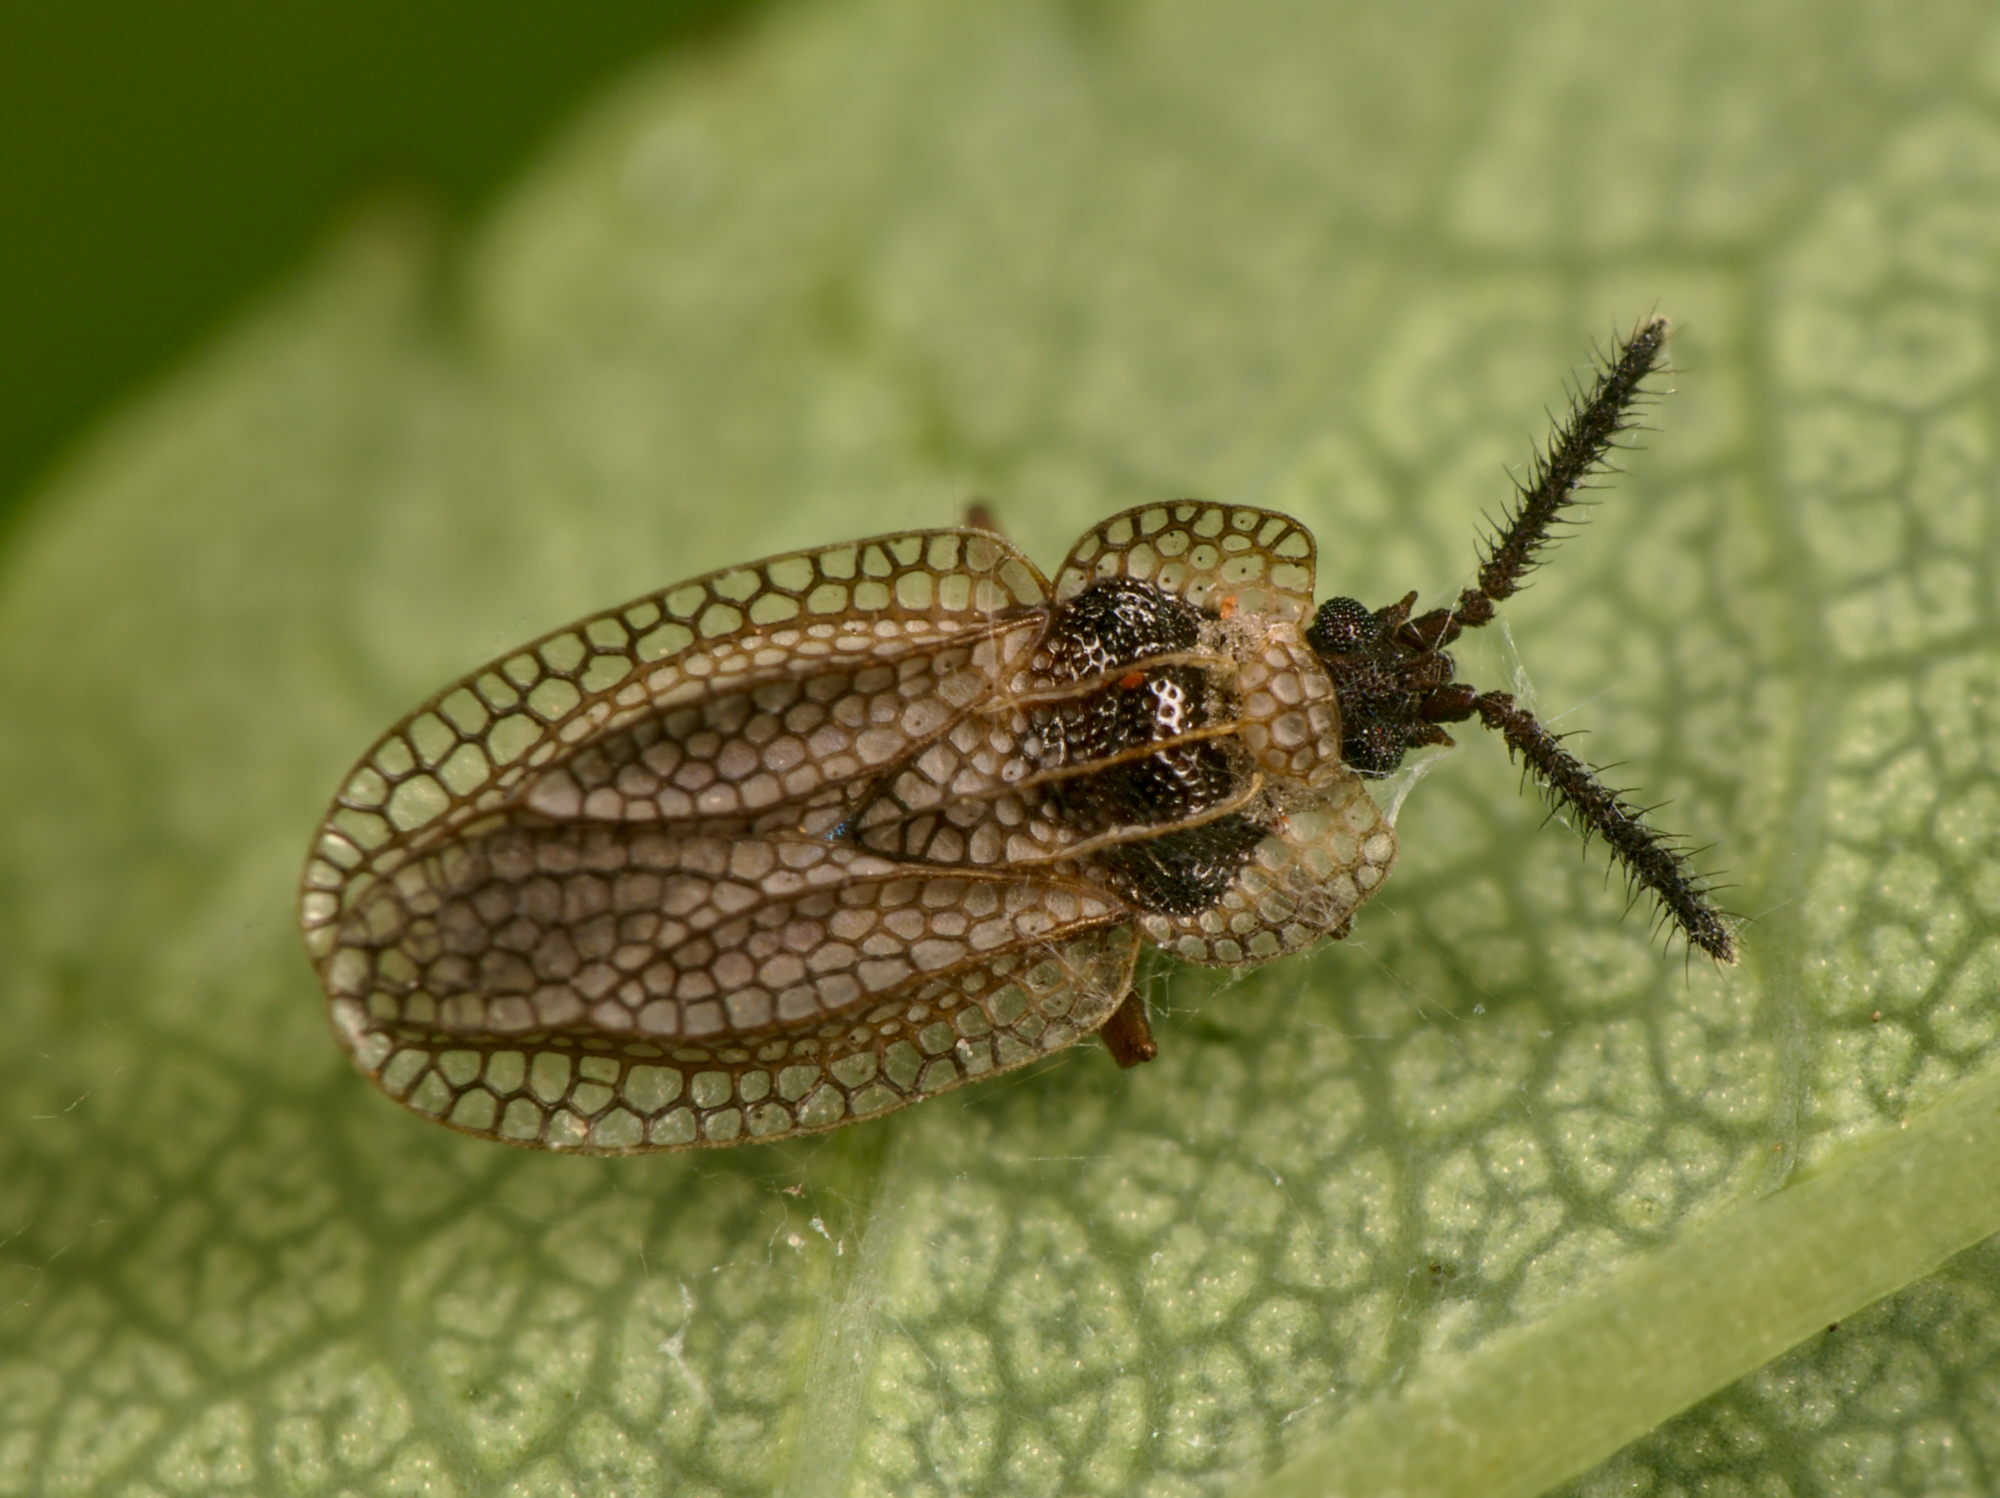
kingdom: Animalia
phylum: Arthropoda
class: Insecta
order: Hemiptera
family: Tingidae
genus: Dictyonota
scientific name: Dictyonota tricornis
